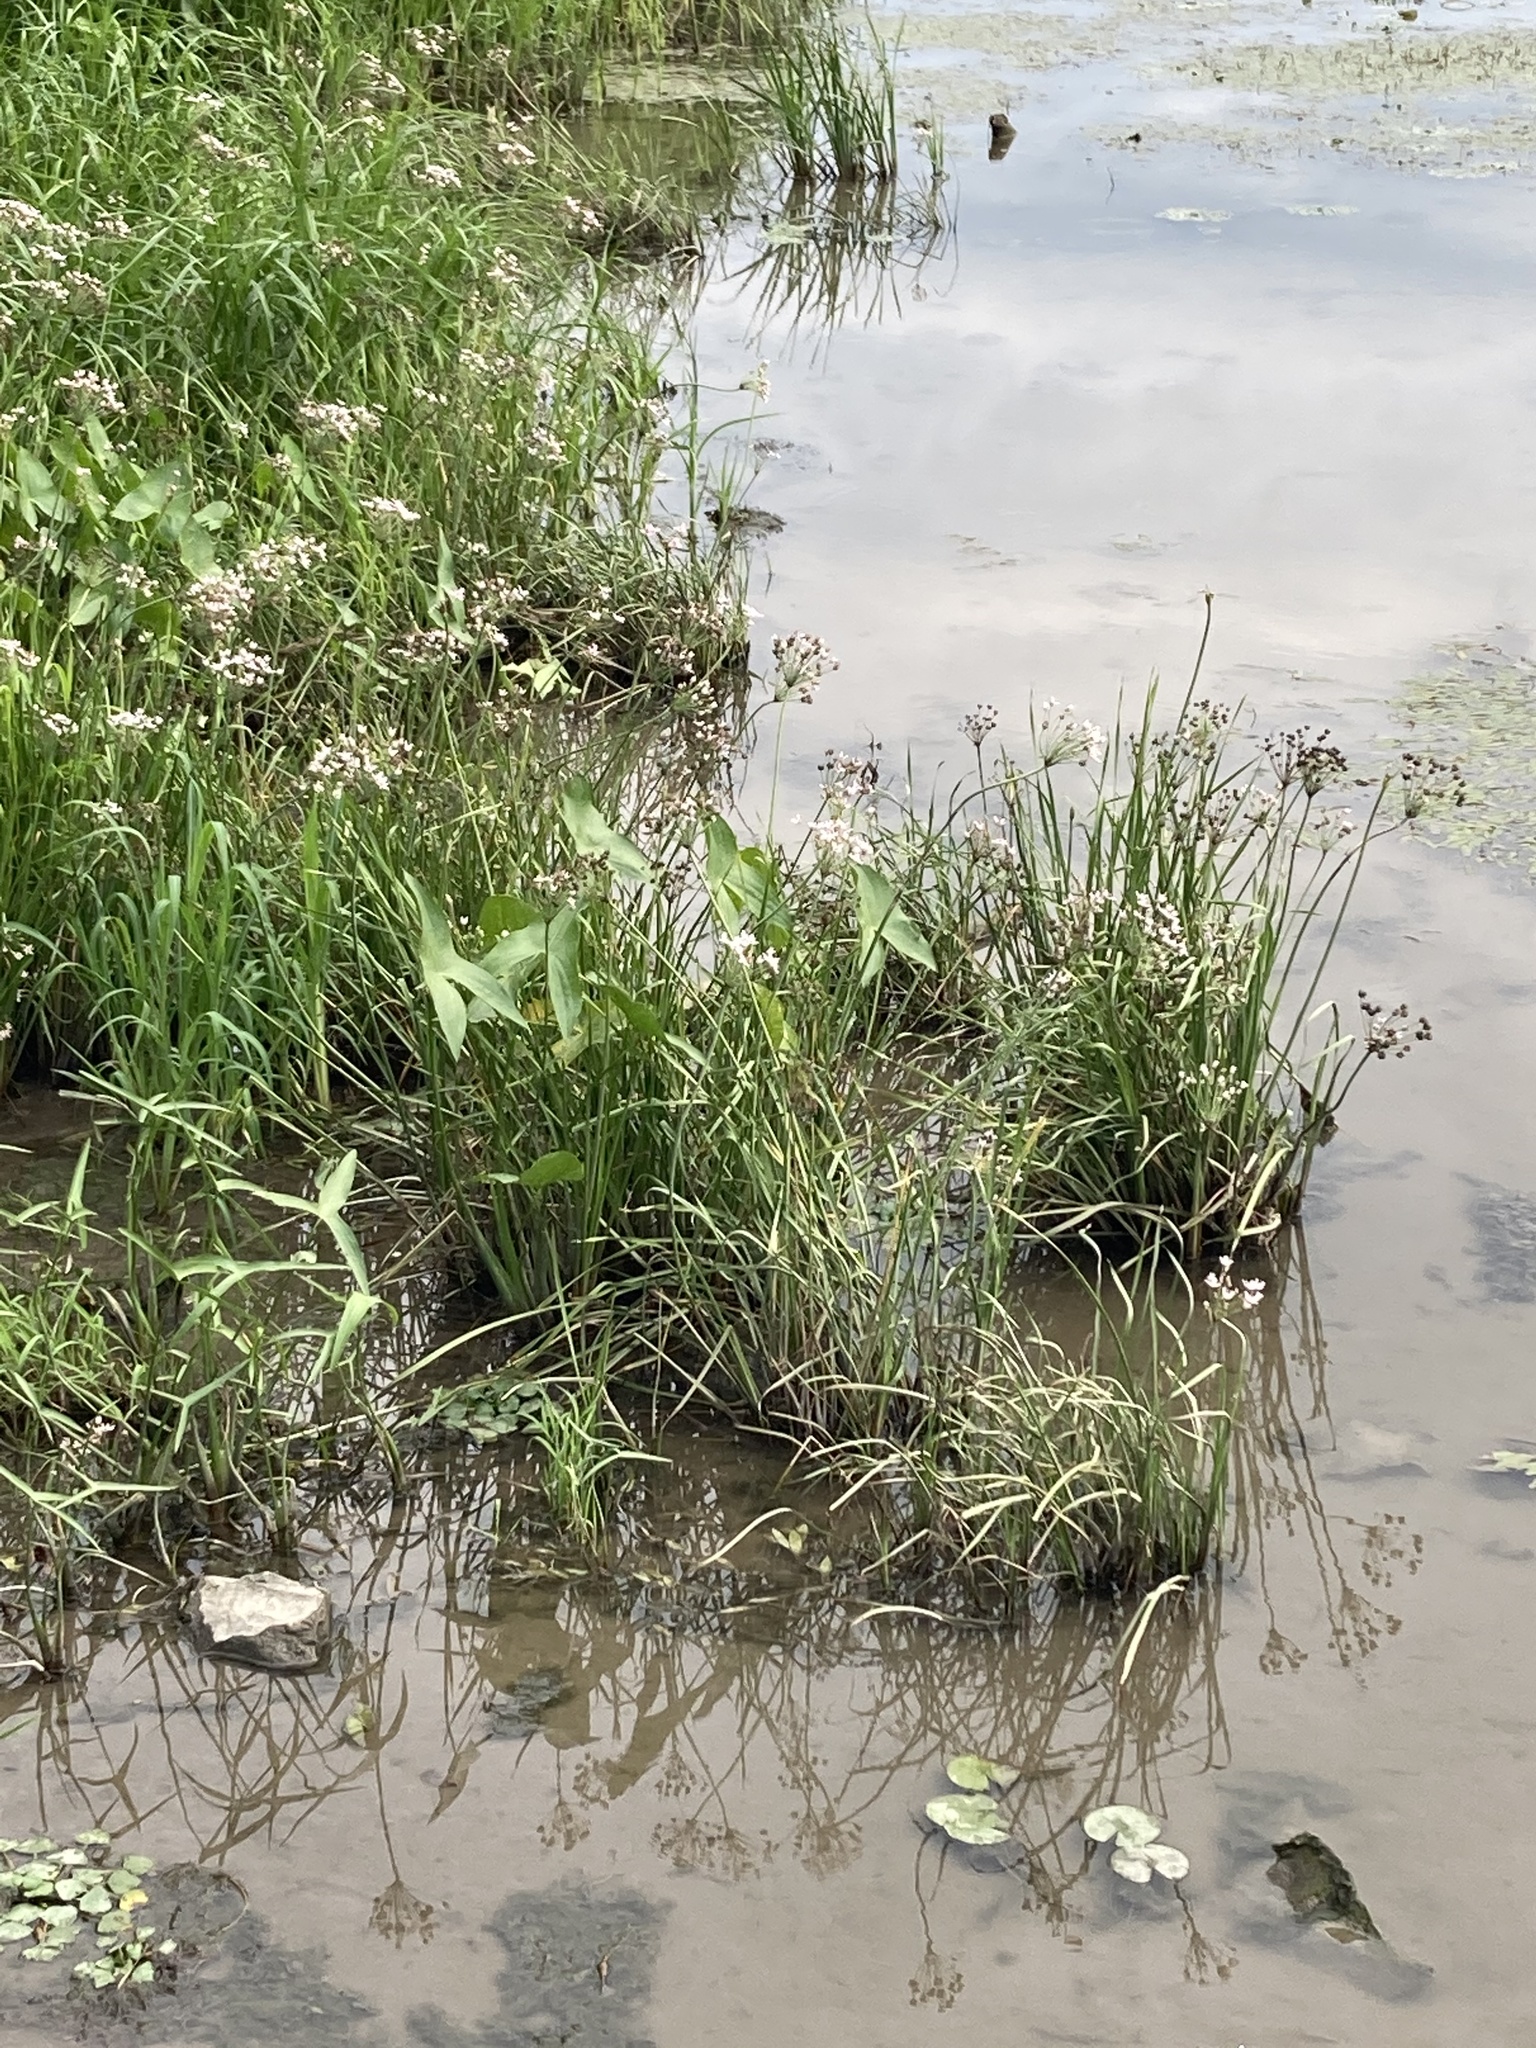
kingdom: Plantae
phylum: Tracheophyta
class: Liliopsida
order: Alismatales
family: Butomaceae
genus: Butomus
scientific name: Butomus umbellatus
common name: Flowering-rush
